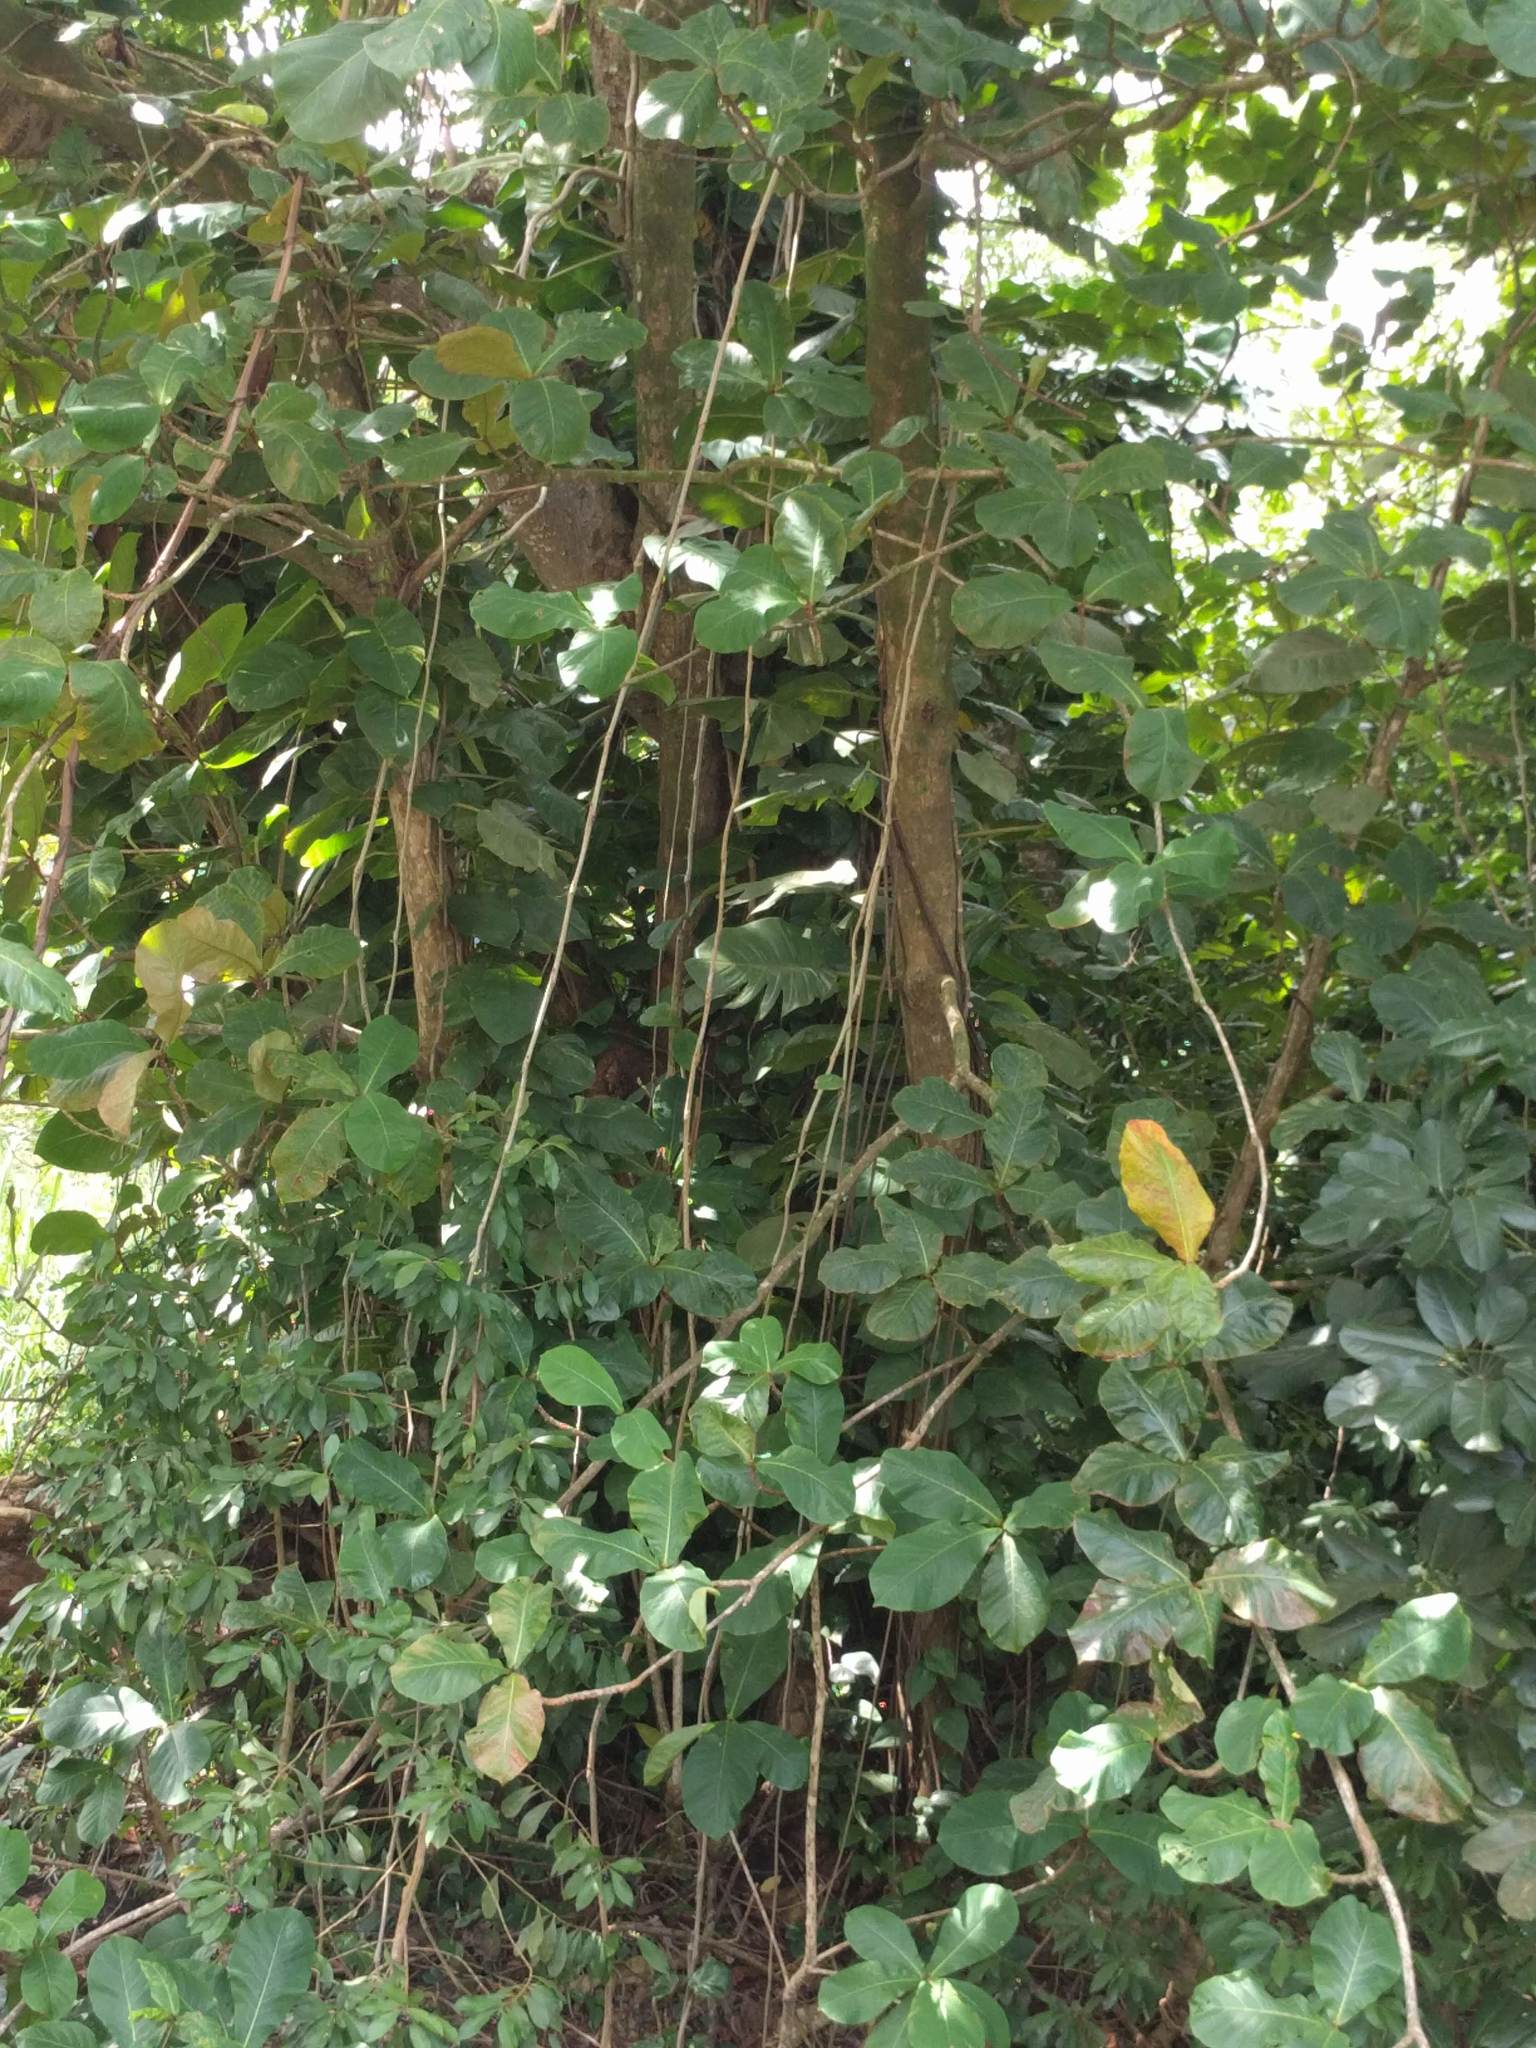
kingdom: Plantae
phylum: Tracheophyta
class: Liliopsida
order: Alismatales
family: Araceae
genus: Epipremnum
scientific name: Epipremnum aureum
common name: Golden hunter's-robe
